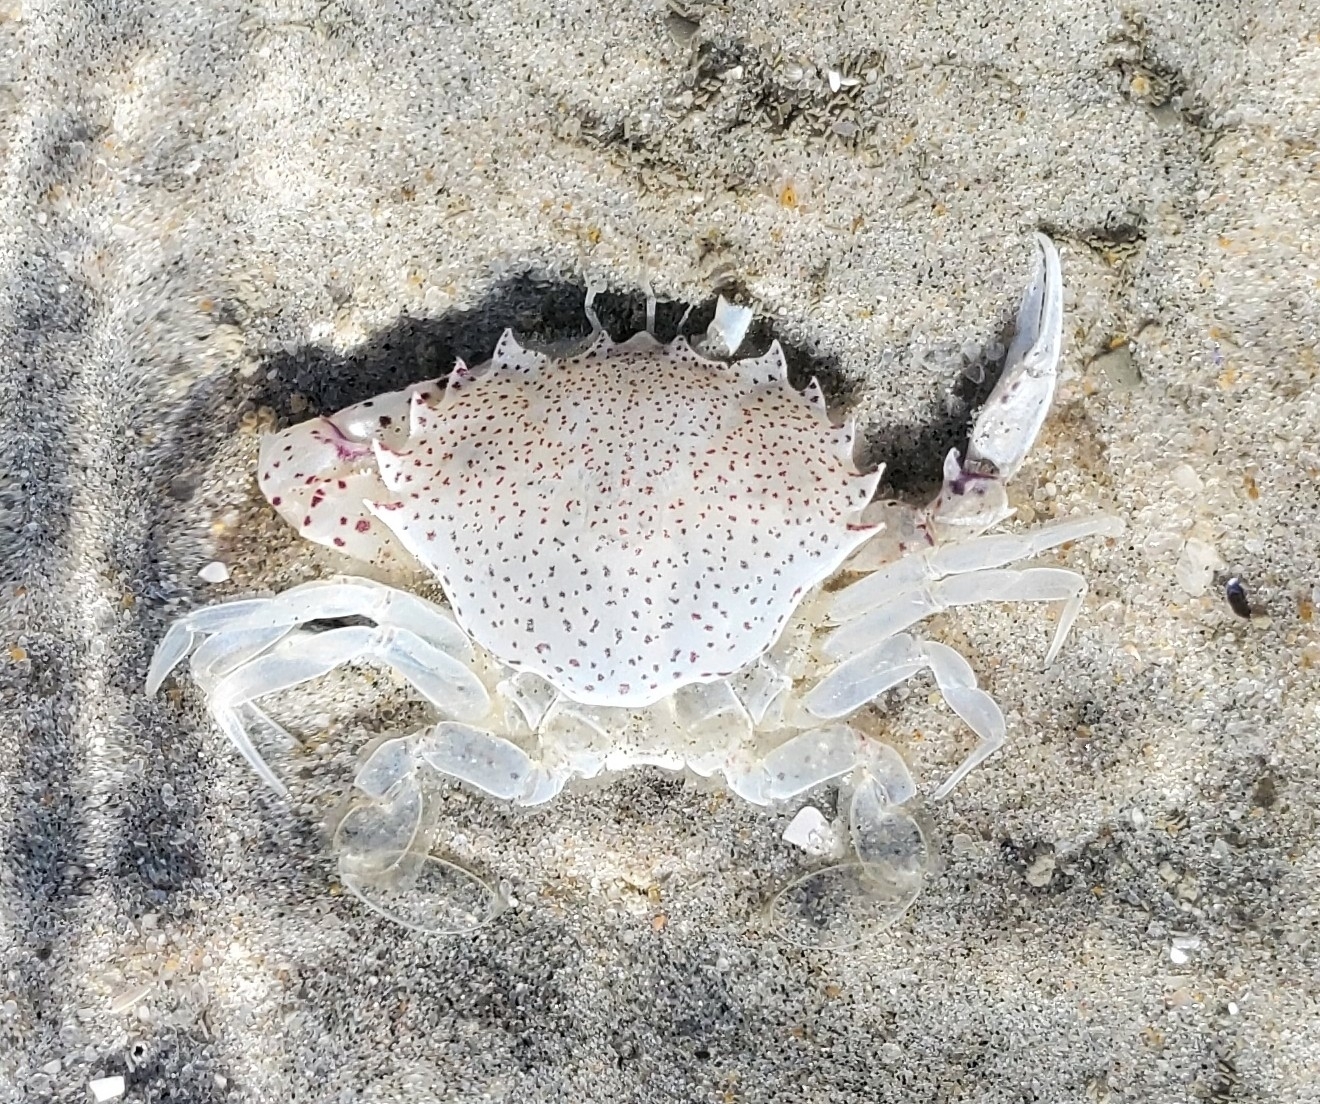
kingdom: Animalia
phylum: Arthropoda
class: Malacostraca
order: Decapoda
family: Ovalipidae
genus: Ovalipes
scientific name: Ovalipes ocellatus
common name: Lady crab
